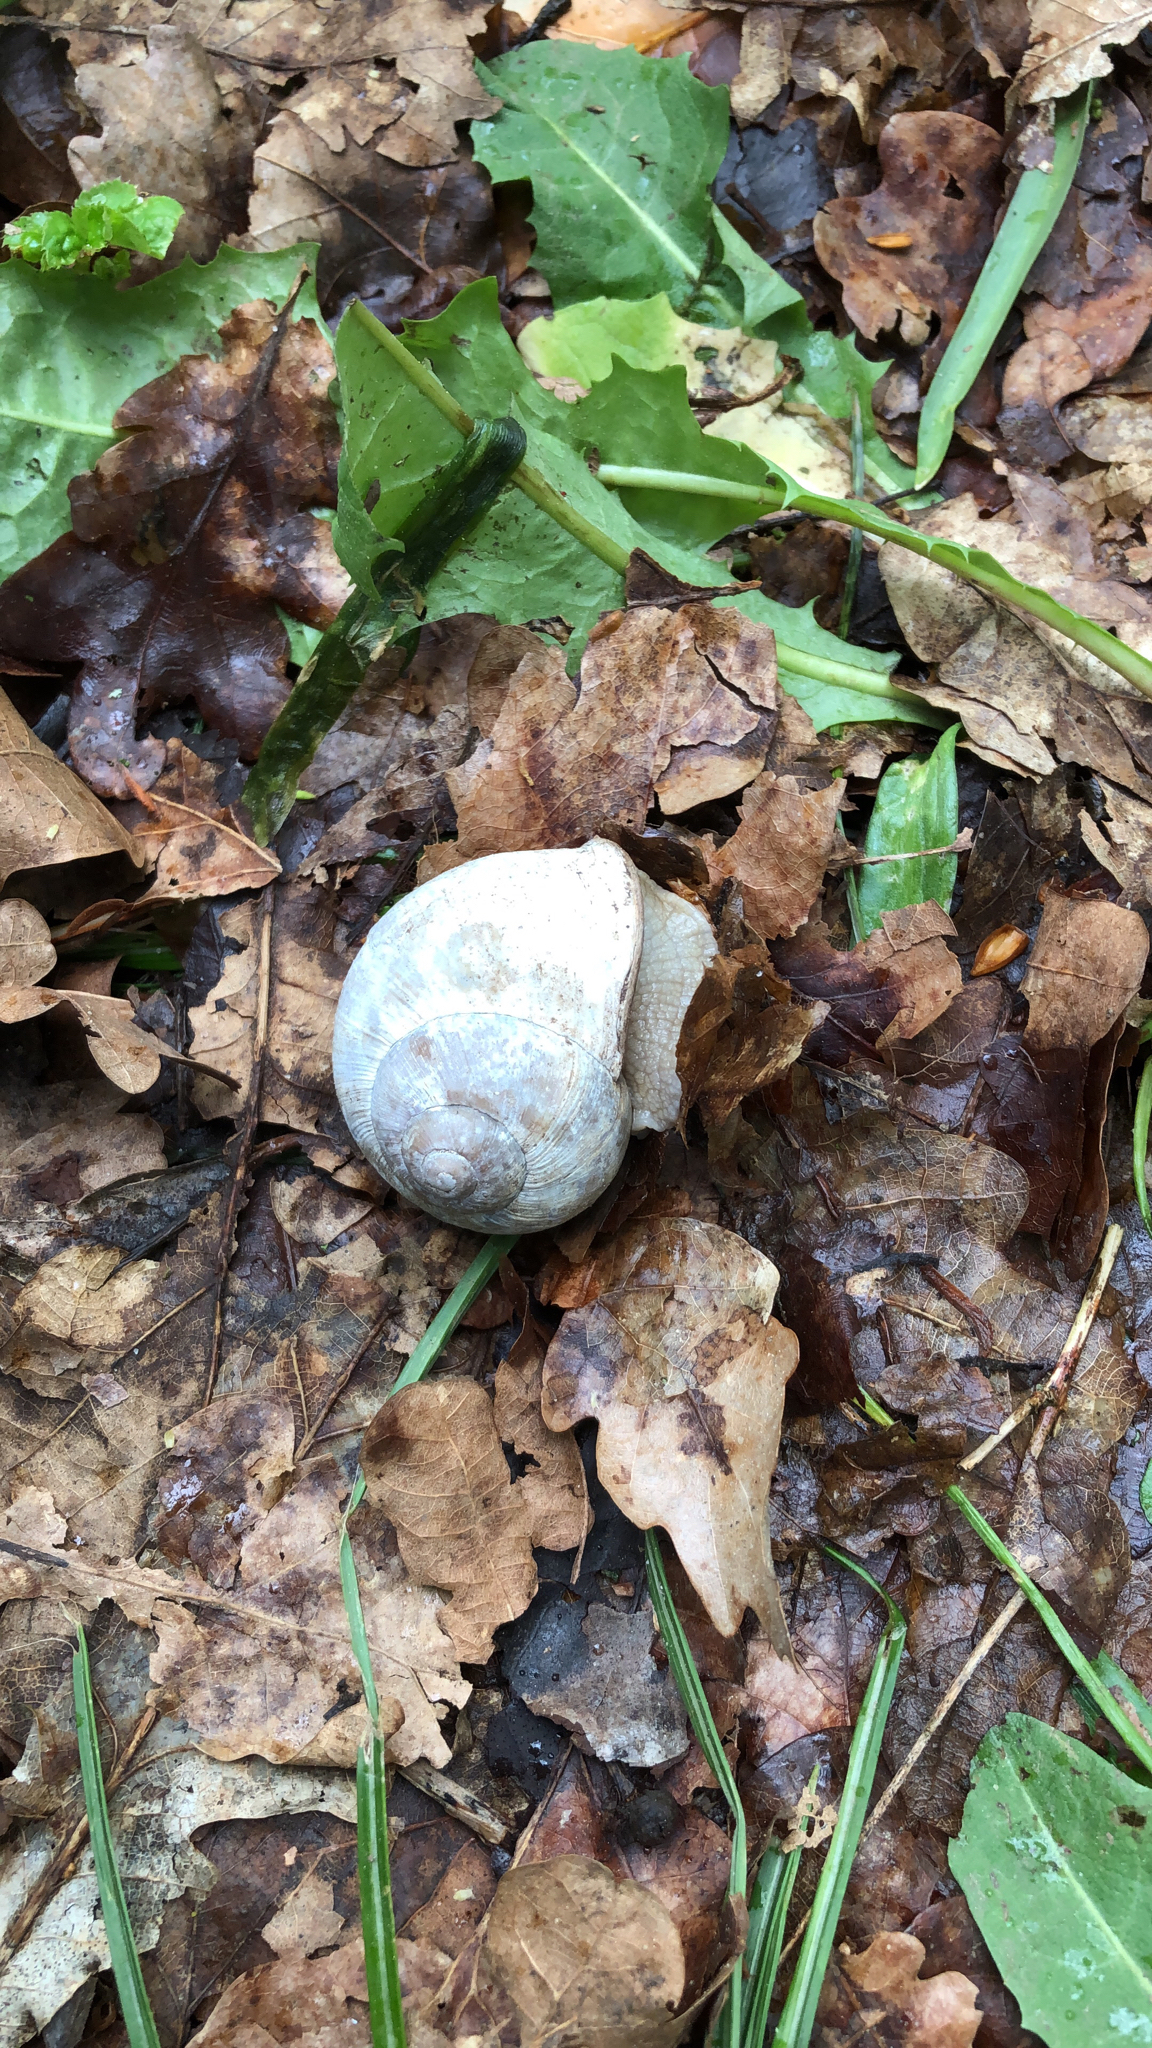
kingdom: Animalia
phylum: Mollusca
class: Gastropoda
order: Stylommatophora
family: Helicidae
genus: Helix
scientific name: Helix pomatia
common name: Roman snail
